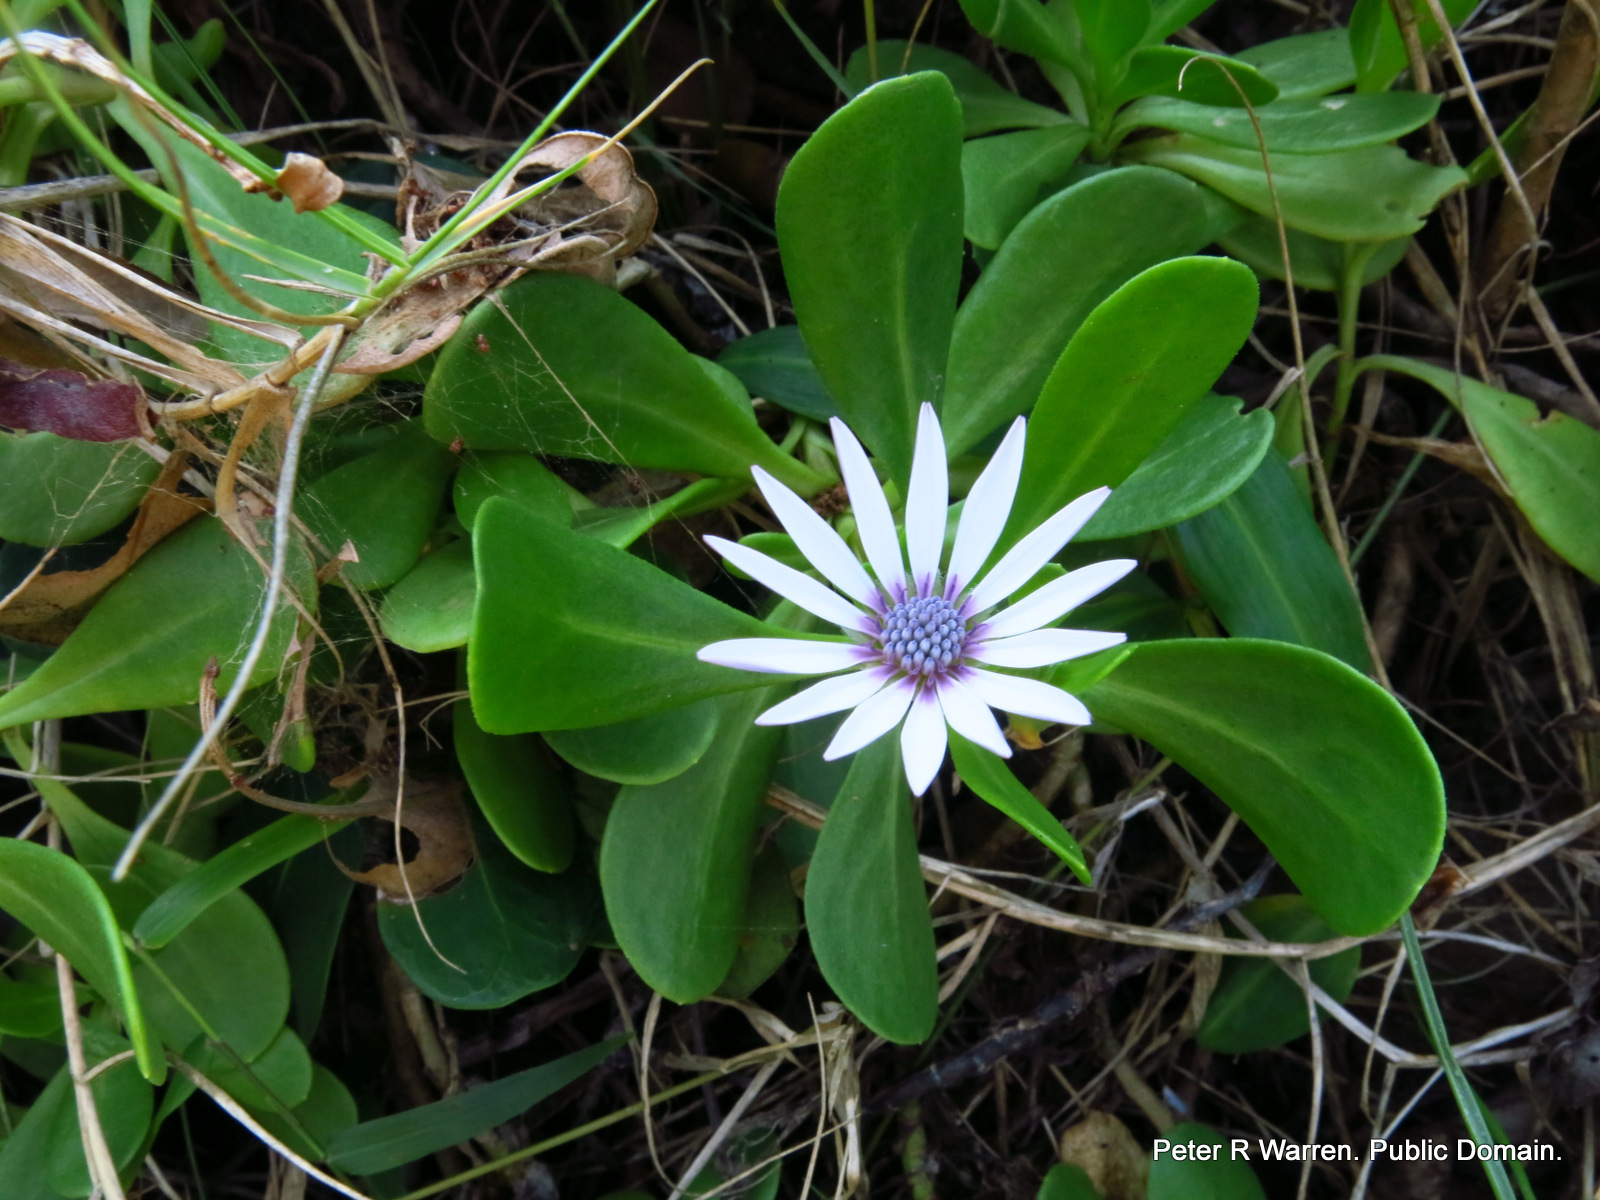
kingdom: Plantae
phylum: Tracheophyta
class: Magnoliopsida
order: Asterales
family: Asteraceae
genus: Dimorphotheca
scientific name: Dimorphotheca fruticosa
